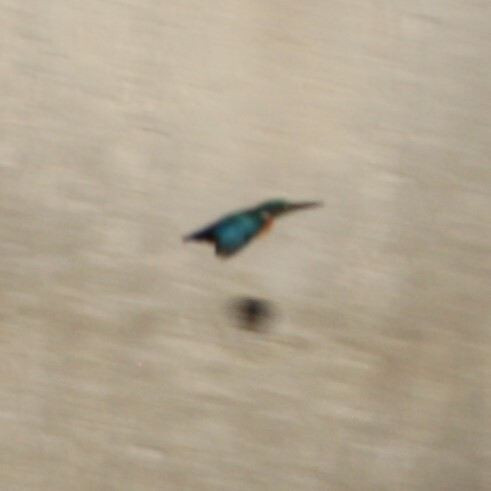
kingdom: Animalia
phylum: Chordata
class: Aves
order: Coraciiformes
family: Alcedinidae
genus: Alcedo
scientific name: Alcedo atthis
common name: Common kingfisher
